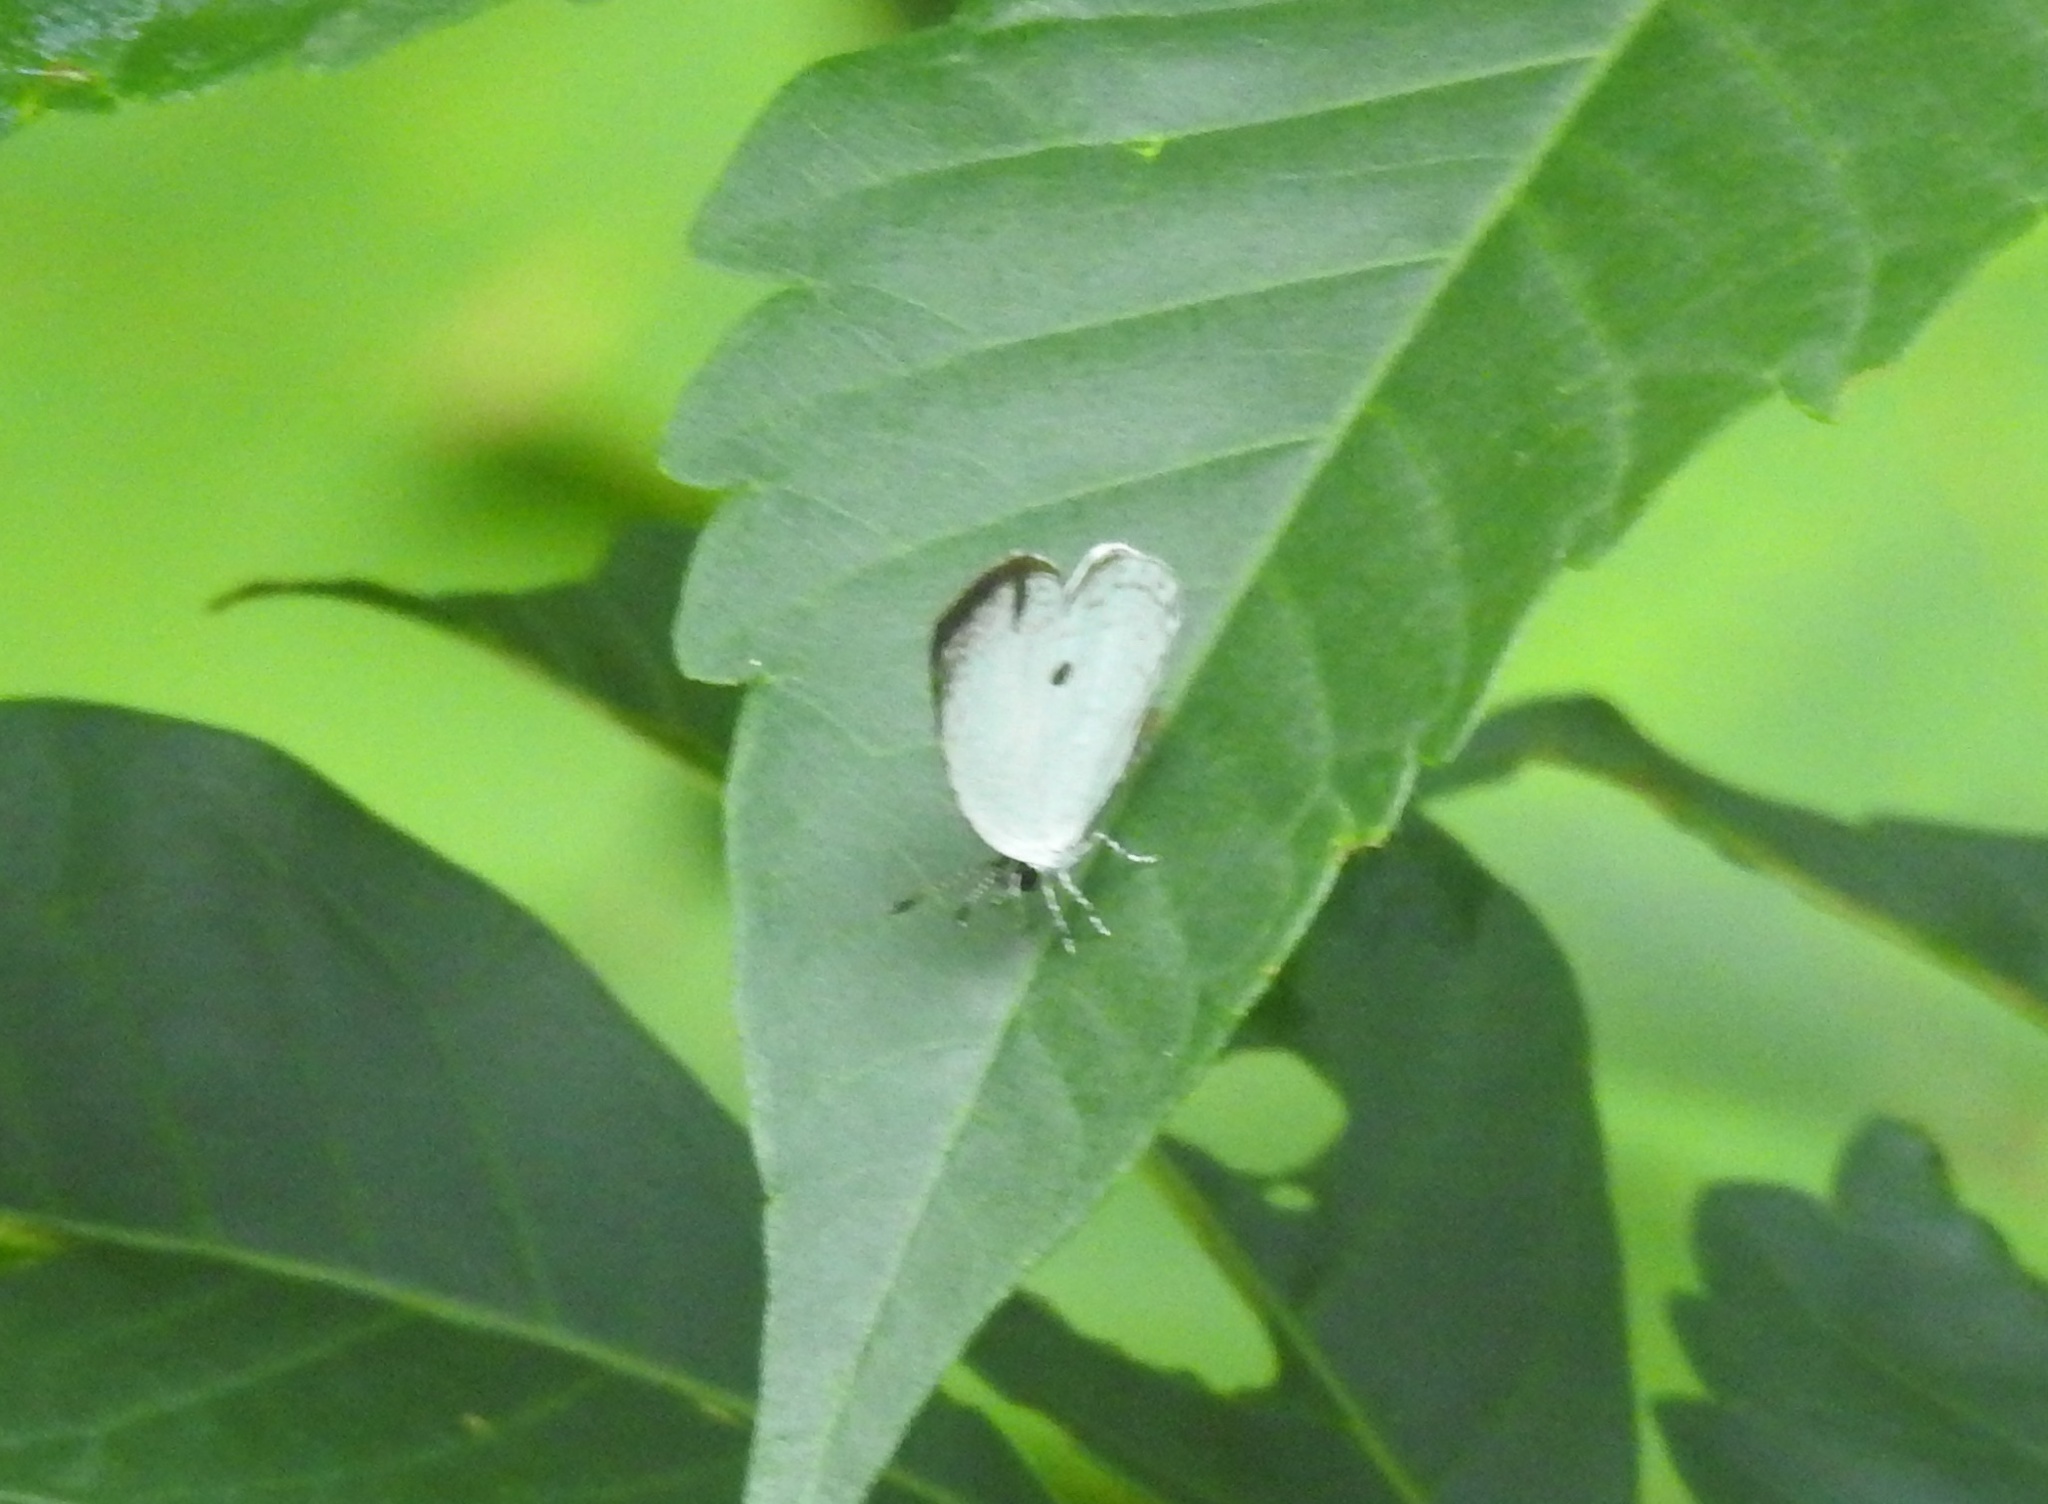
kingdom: Animalia
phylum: Arthropoda
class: Insecta
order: Lepidoptera
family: Lycaenidae
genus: Neopithecops
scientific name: Neopithecops zalmora
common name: Quaker
